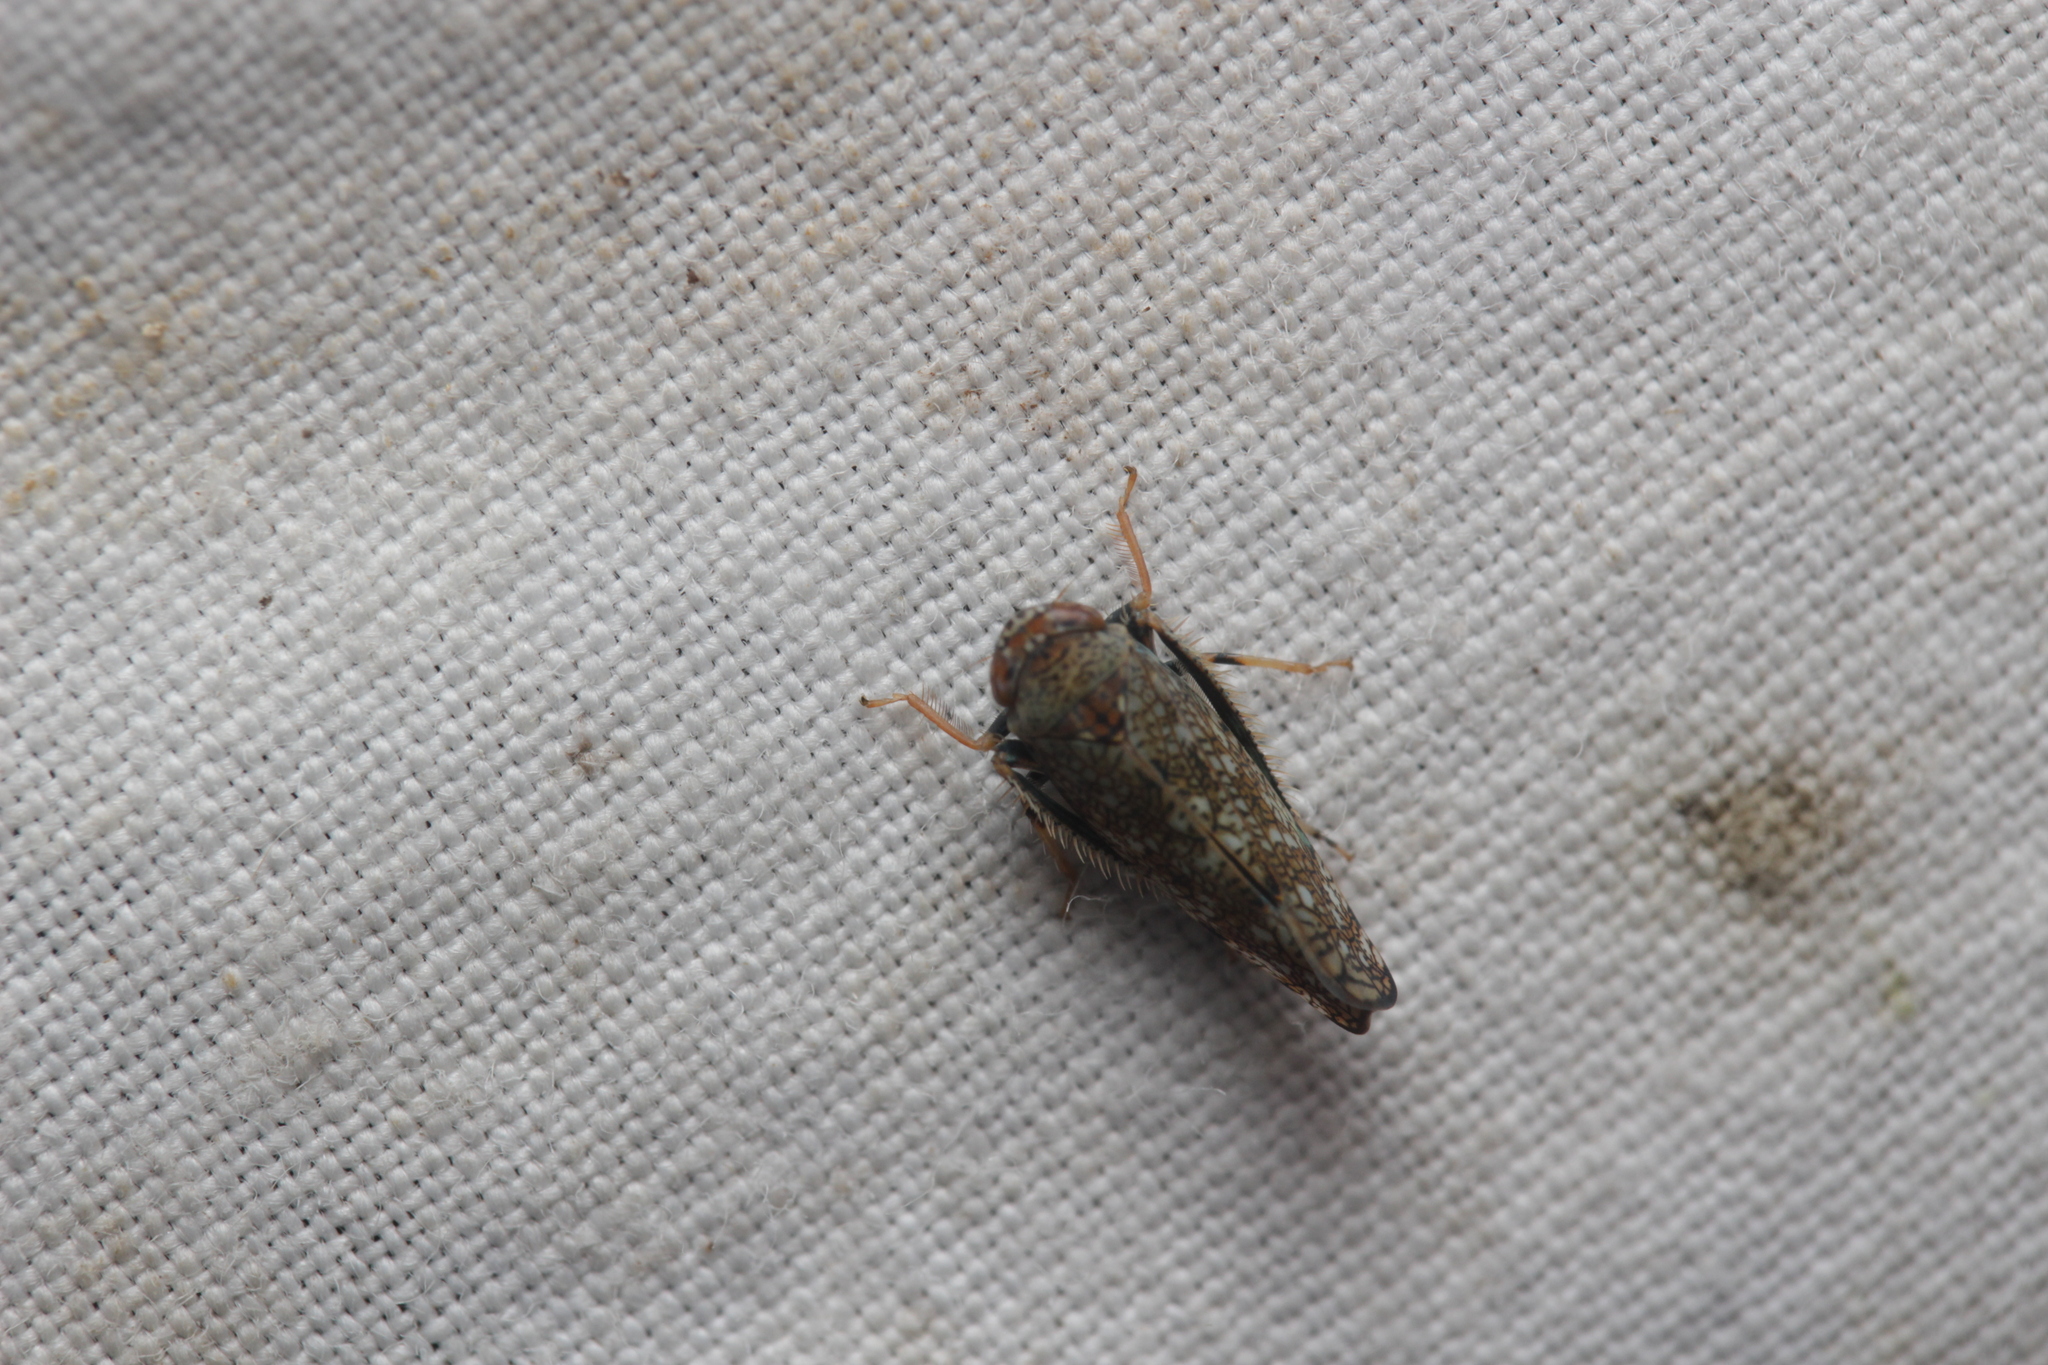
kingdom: Animalia
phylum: Arthropoda
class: Insecta
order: Hemiptera
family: Cicadellidae
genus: Orientus
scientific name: Orientus ishidae
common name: Japanese leafhopper
